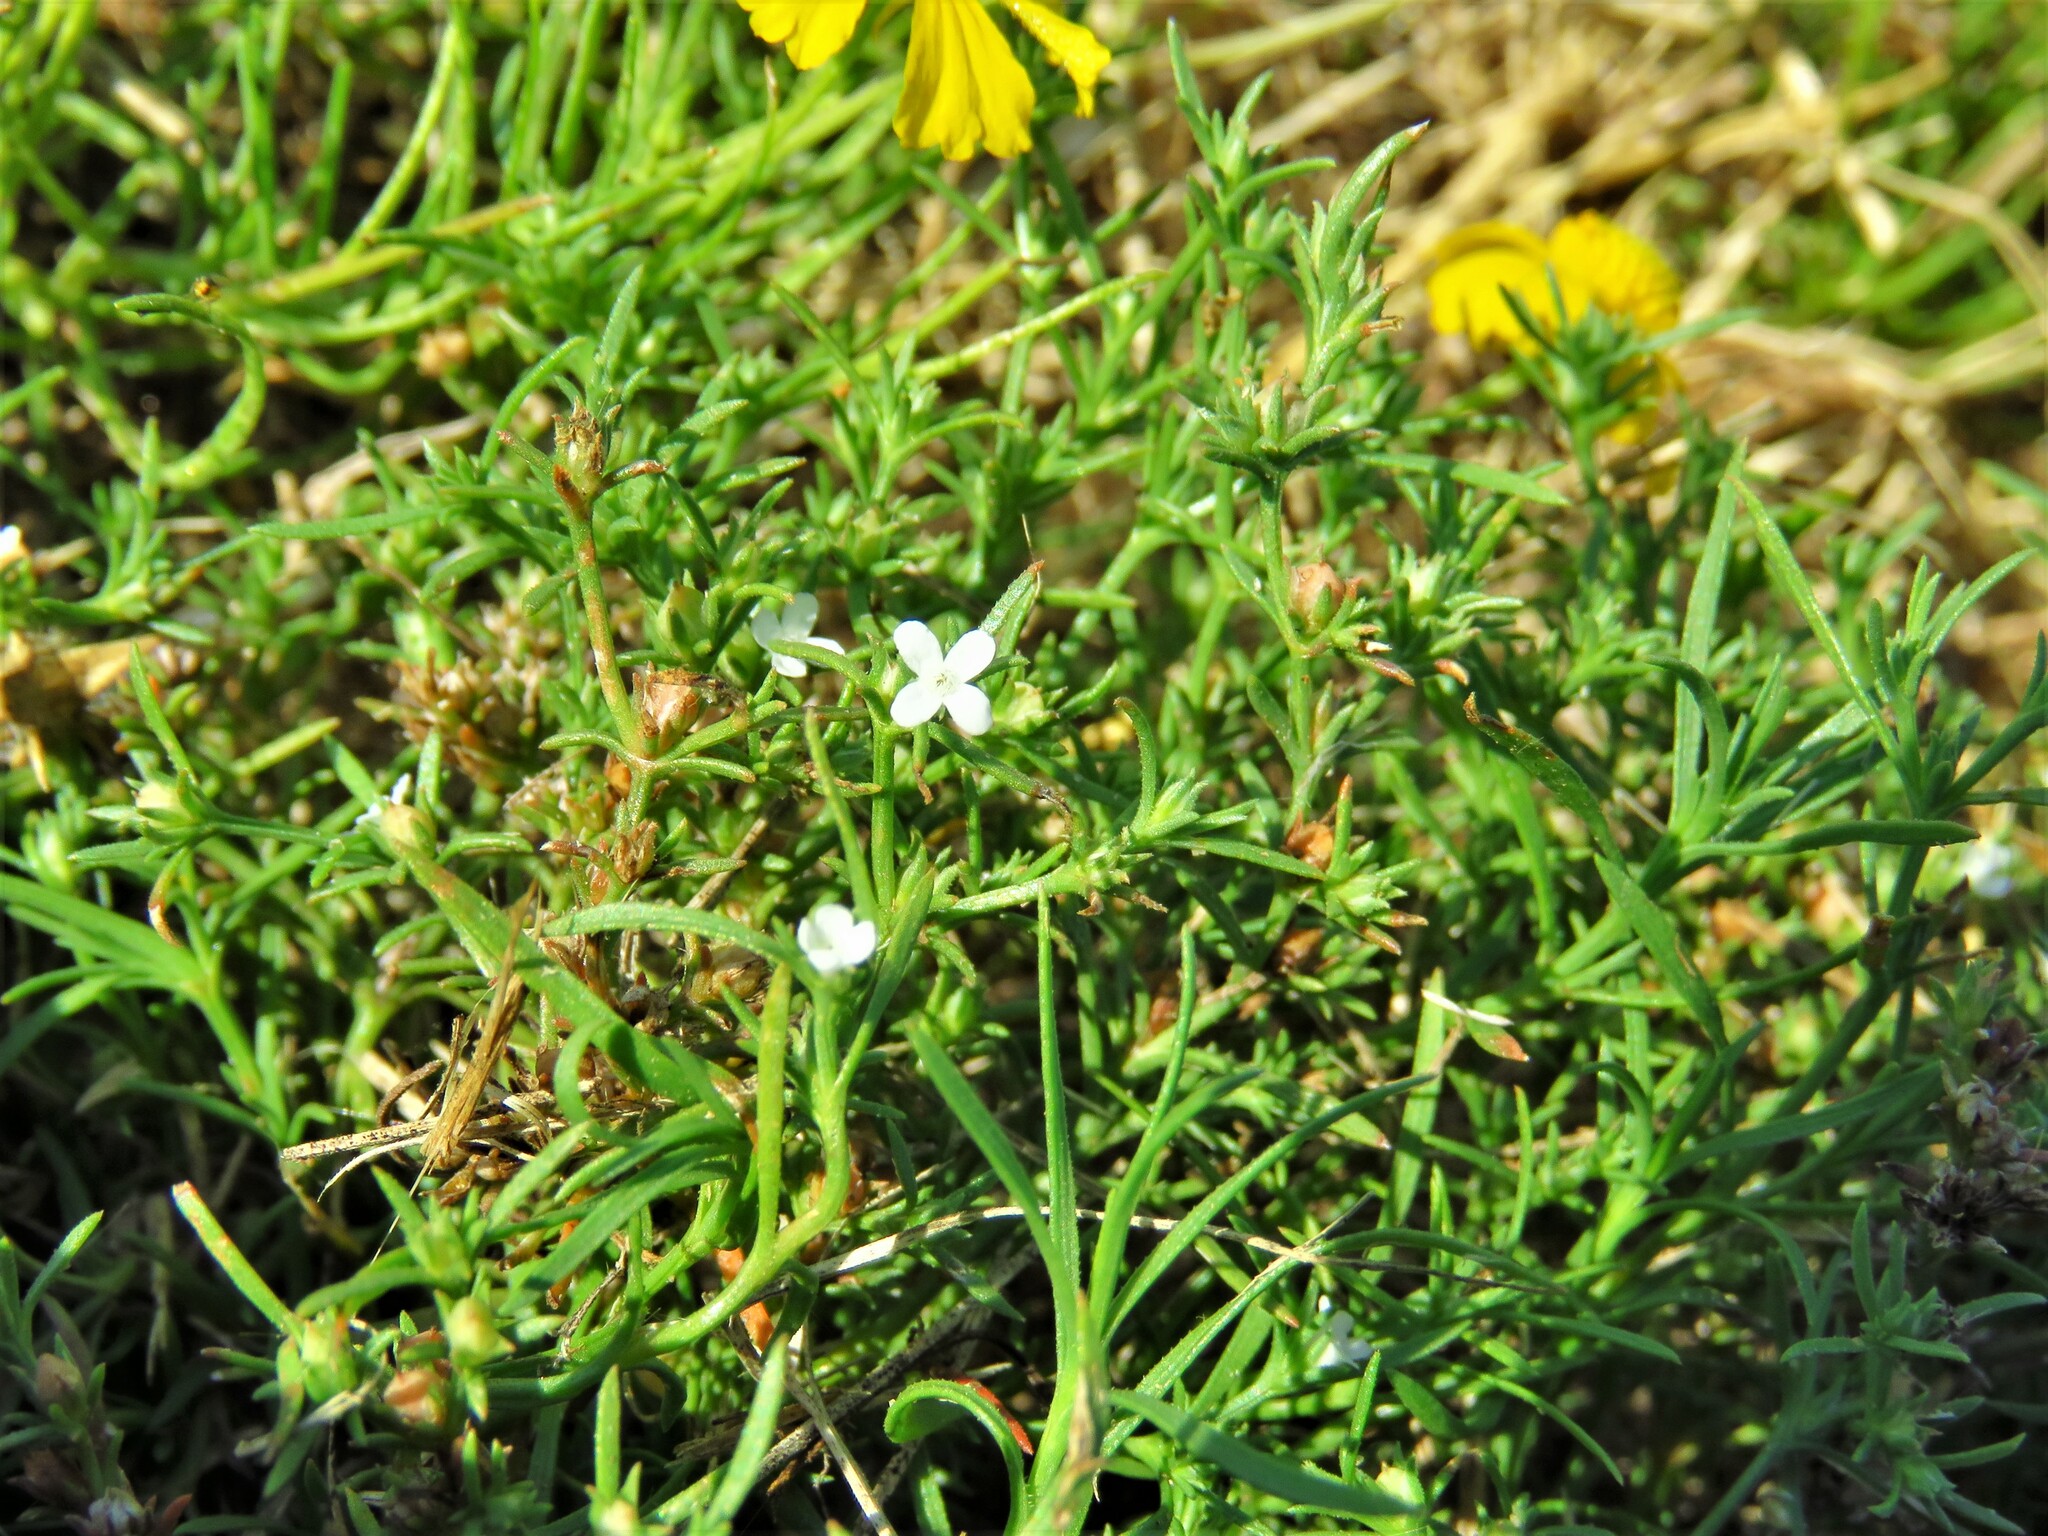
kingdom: Plantae
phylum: Tracheophyta
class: Magnoliopsida
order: Lamiales
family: Tetrachondraceae
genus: Polypremum
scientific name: Polypremum procumbens
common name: Juniper-leaf
